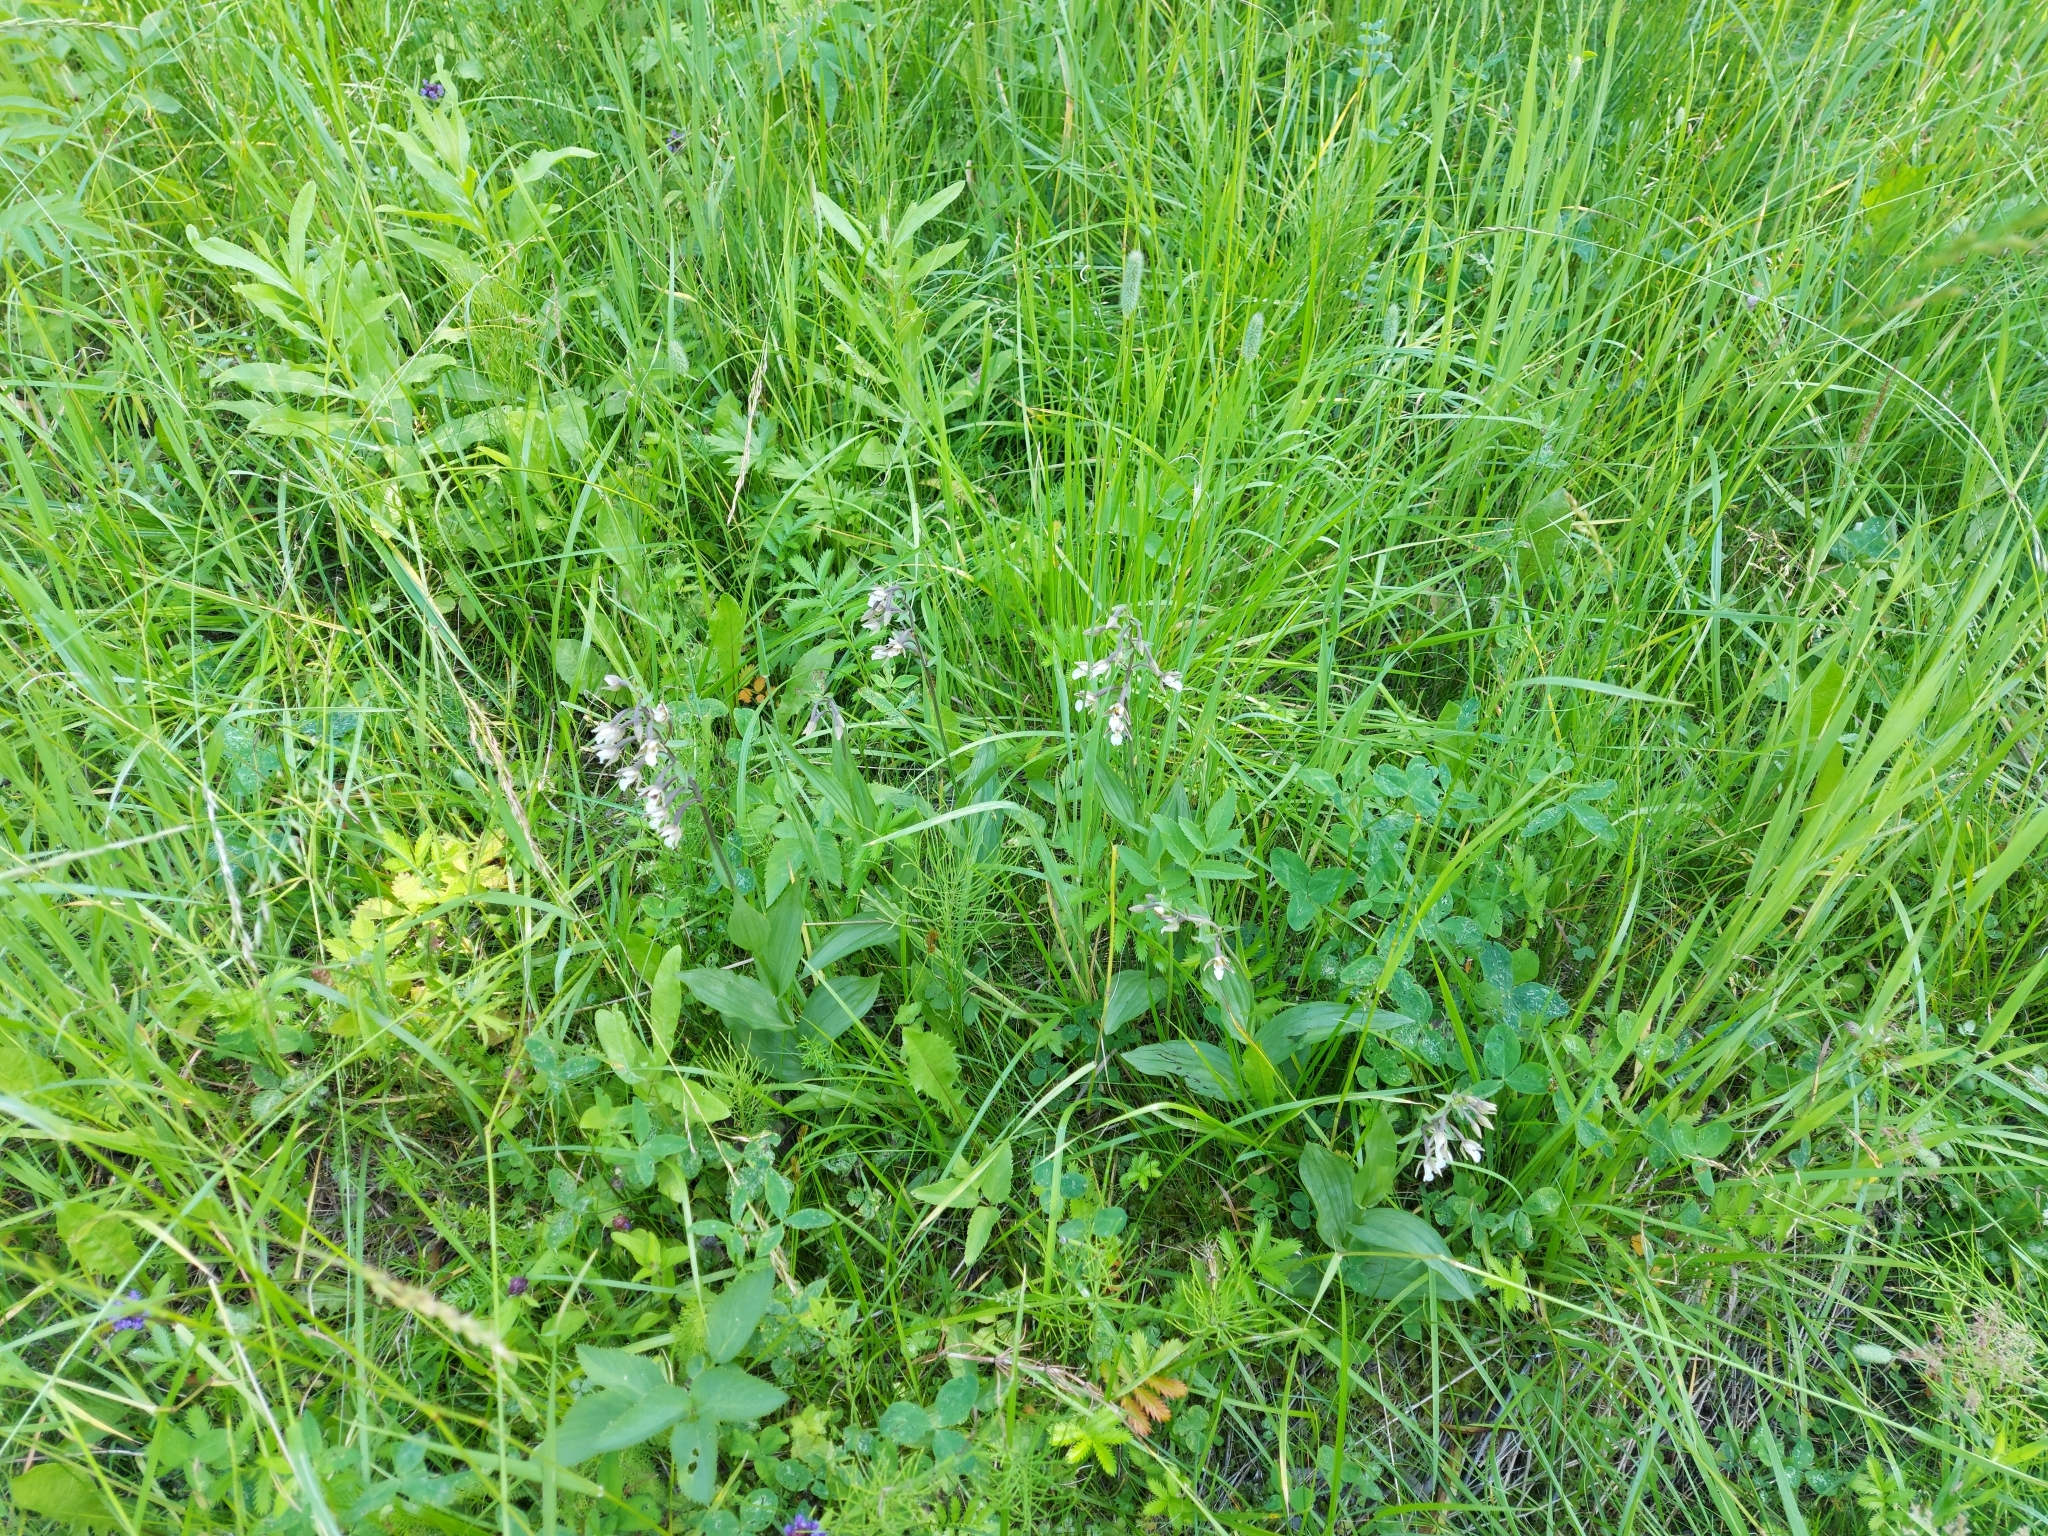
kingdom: Plantae
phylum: Tracheophyta
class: Liliopsida
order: Asparagales
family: Orchidaceae
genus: Epipactis
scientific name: Epipactis palustris
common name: Marsh helleborine
